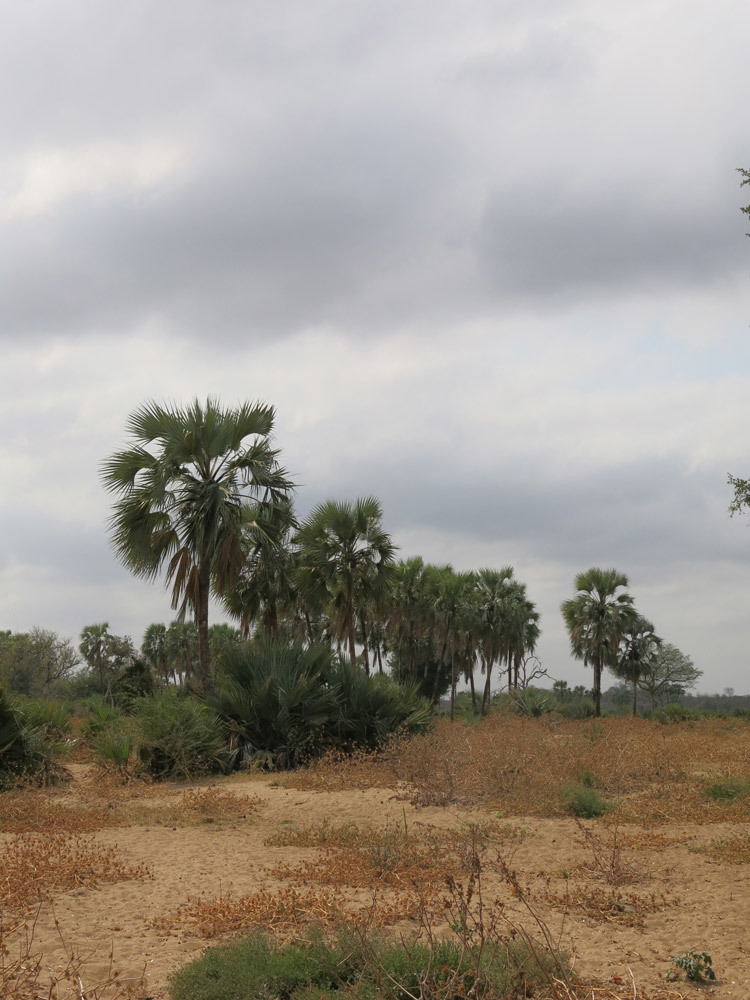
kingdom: Plantae
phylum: Tracheophyta
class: Liliopsida
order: Arecales
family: Arecaceae
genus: Hyphaene
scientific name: Hyphaene petersiana
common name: African ivory nut palm
